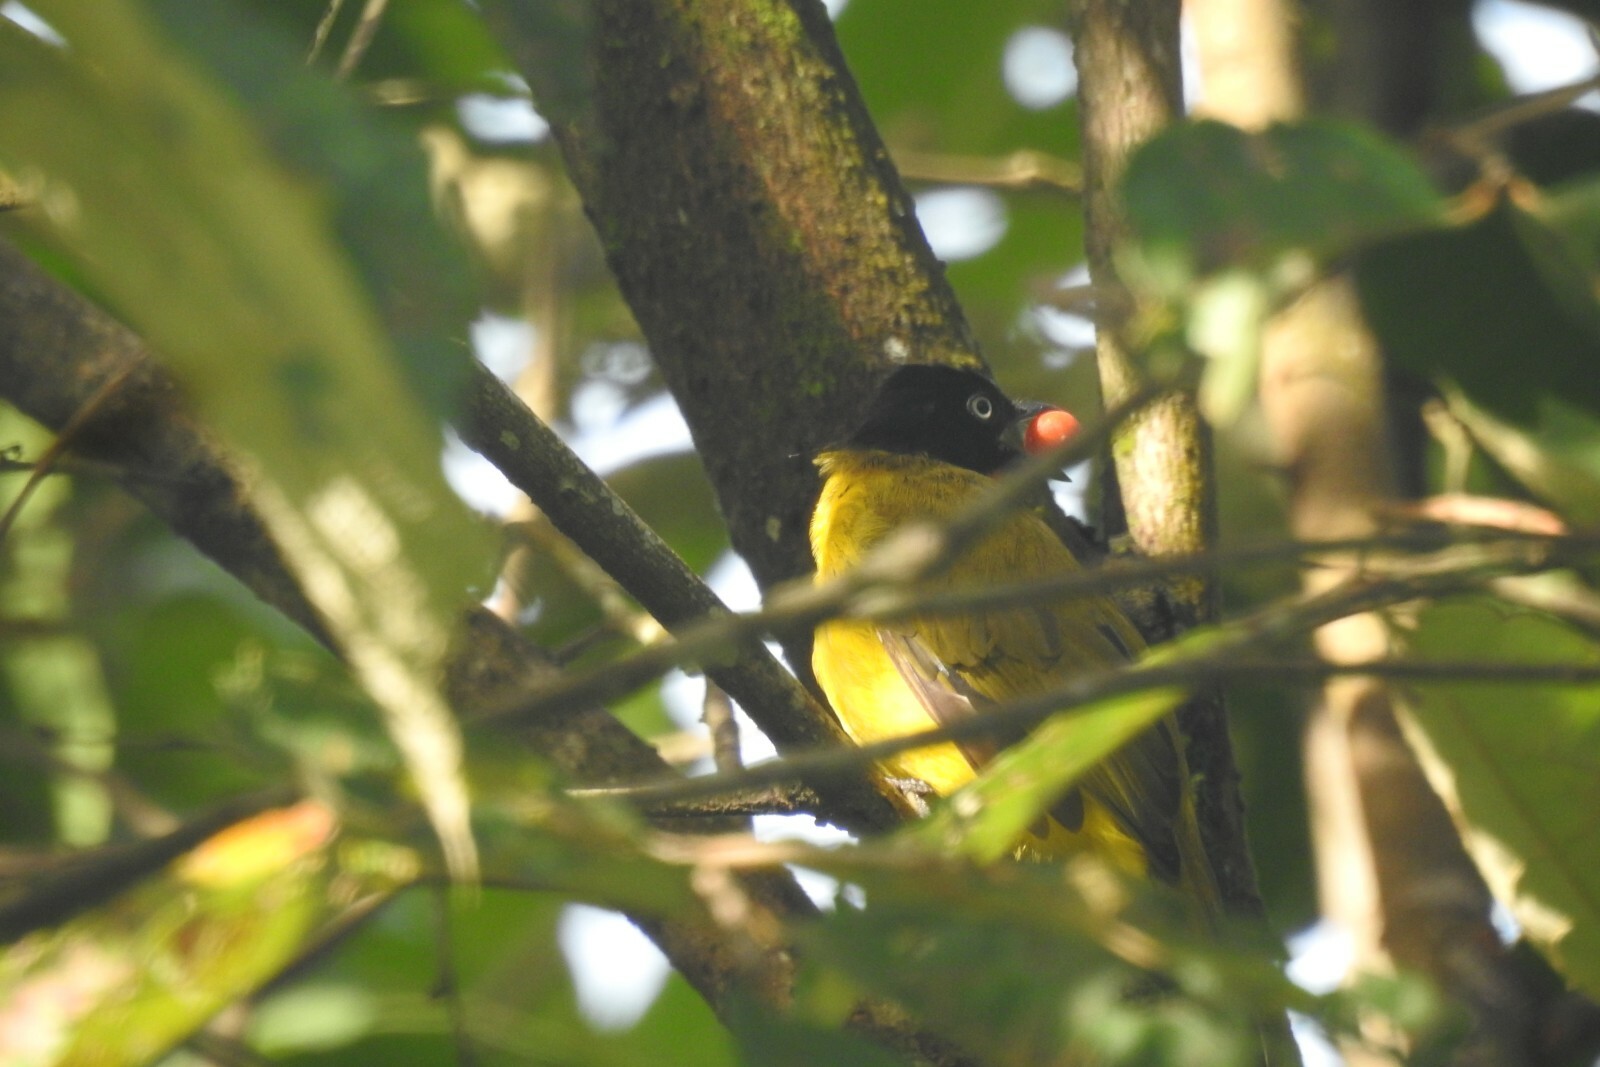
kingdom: Animalia
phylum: Chordata
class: Aves
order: Passeriformes
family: Pycnonotidae
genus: Pycnonotus
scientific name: Pycnonotus gularis
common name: Flame-throated bulbul
